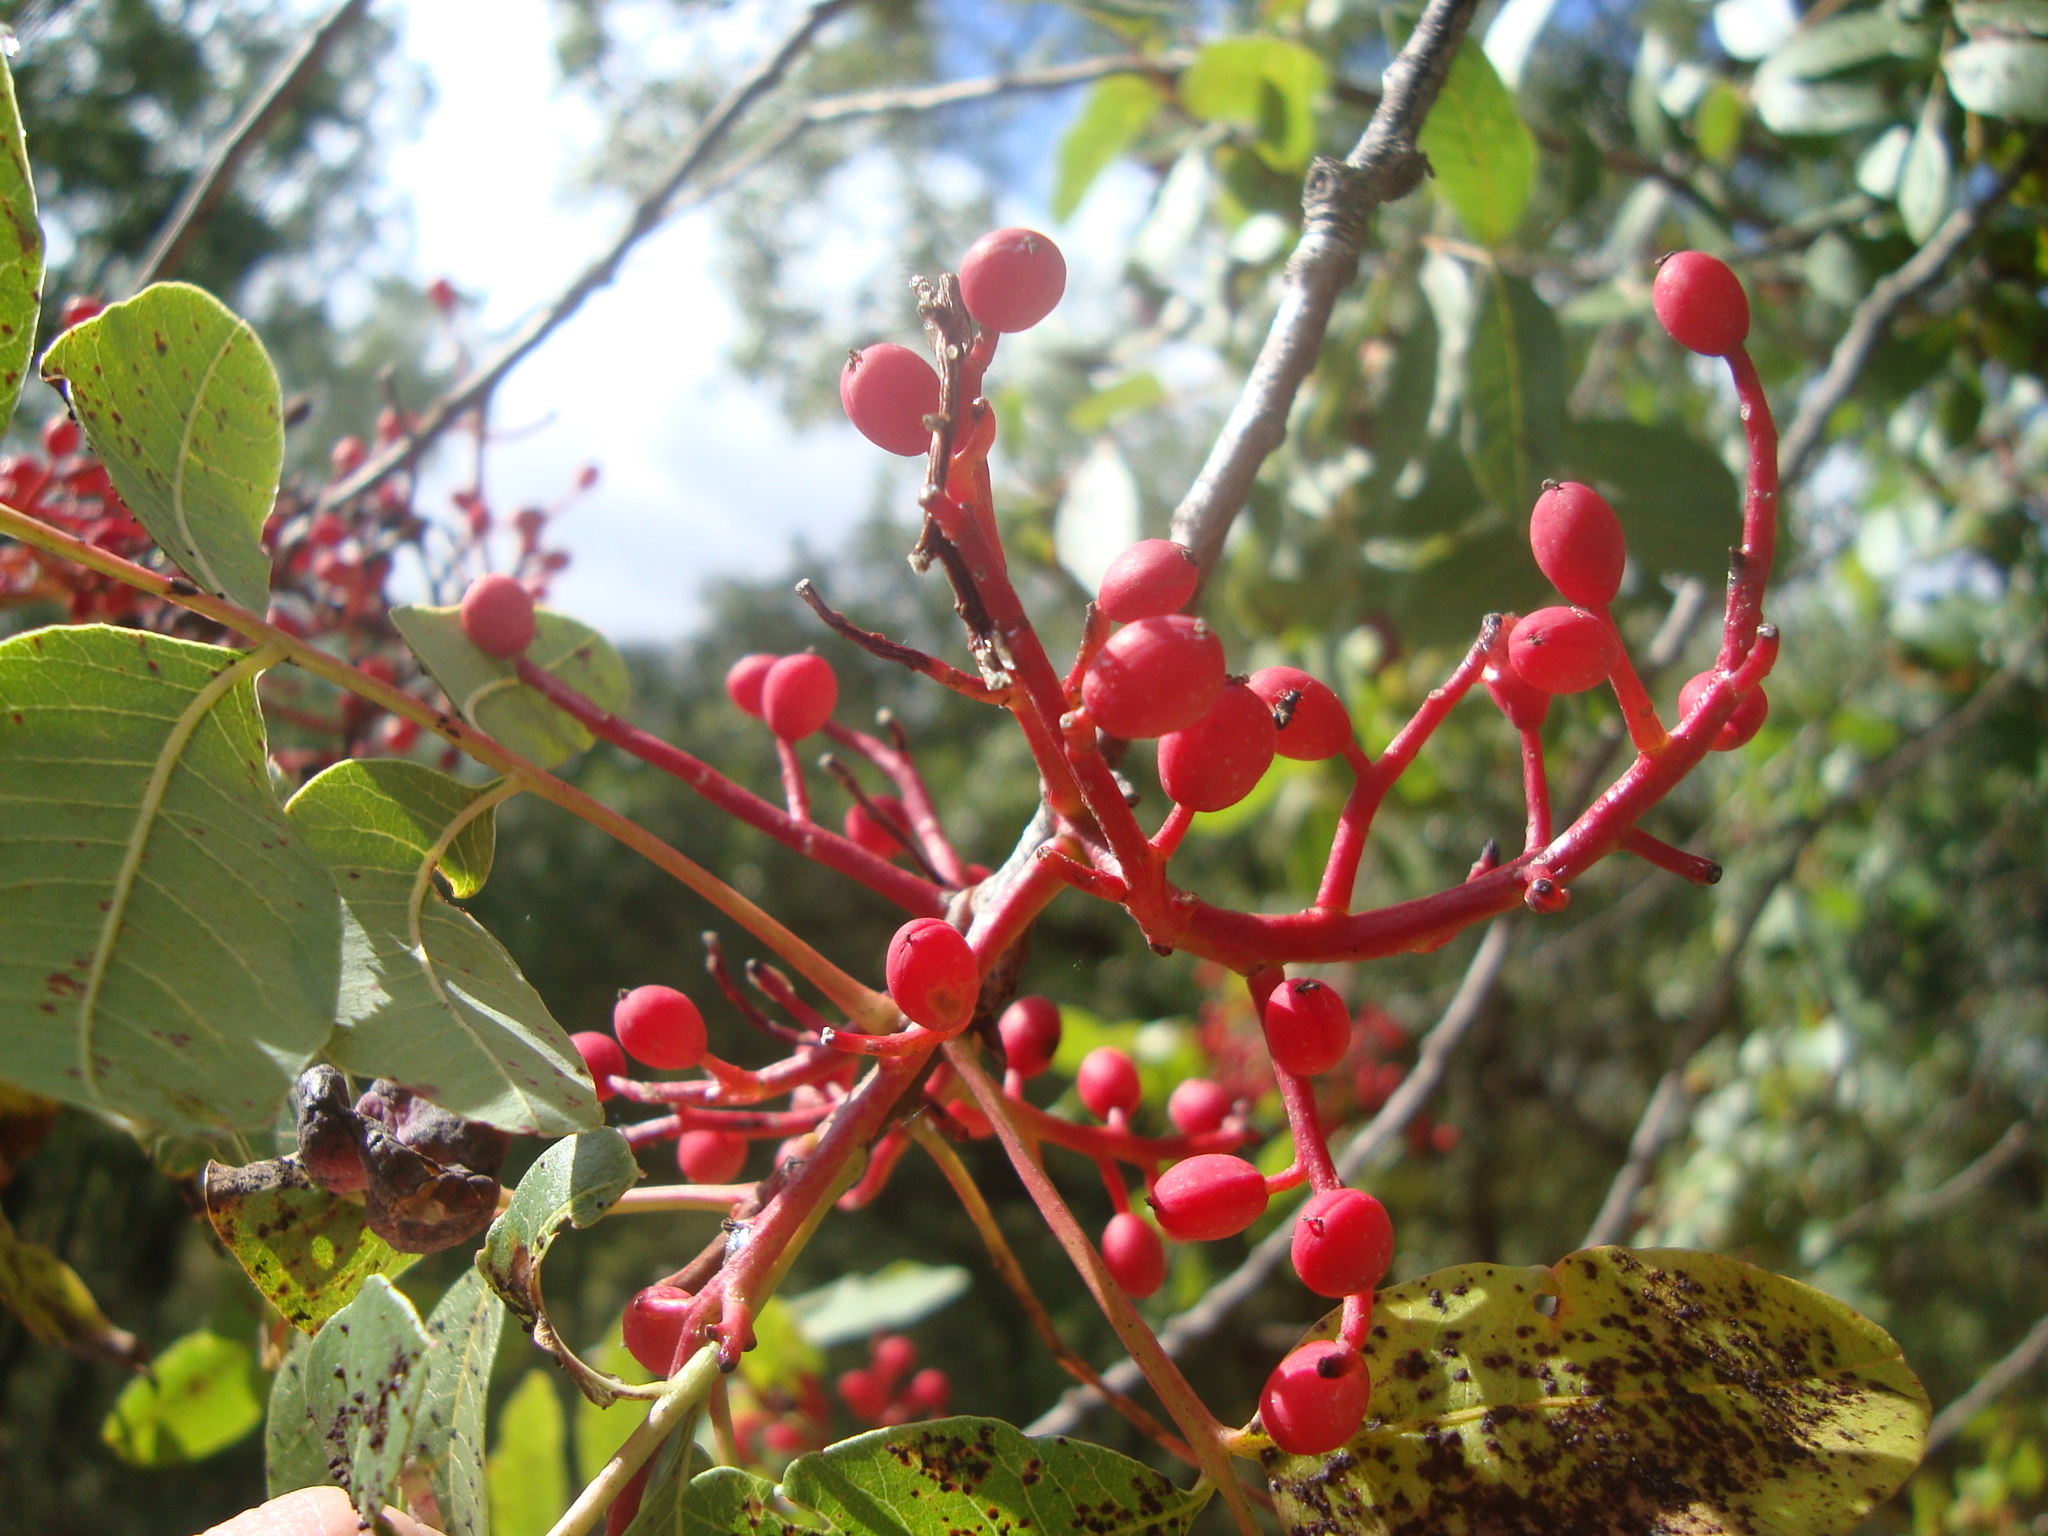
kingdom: Plantae
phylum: Tracheophyta
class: Magnoliopsida
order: Sapindales
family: Anacardiaceae
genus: Pistacia
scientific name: Pistacia terebinthus
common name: Terebinth
